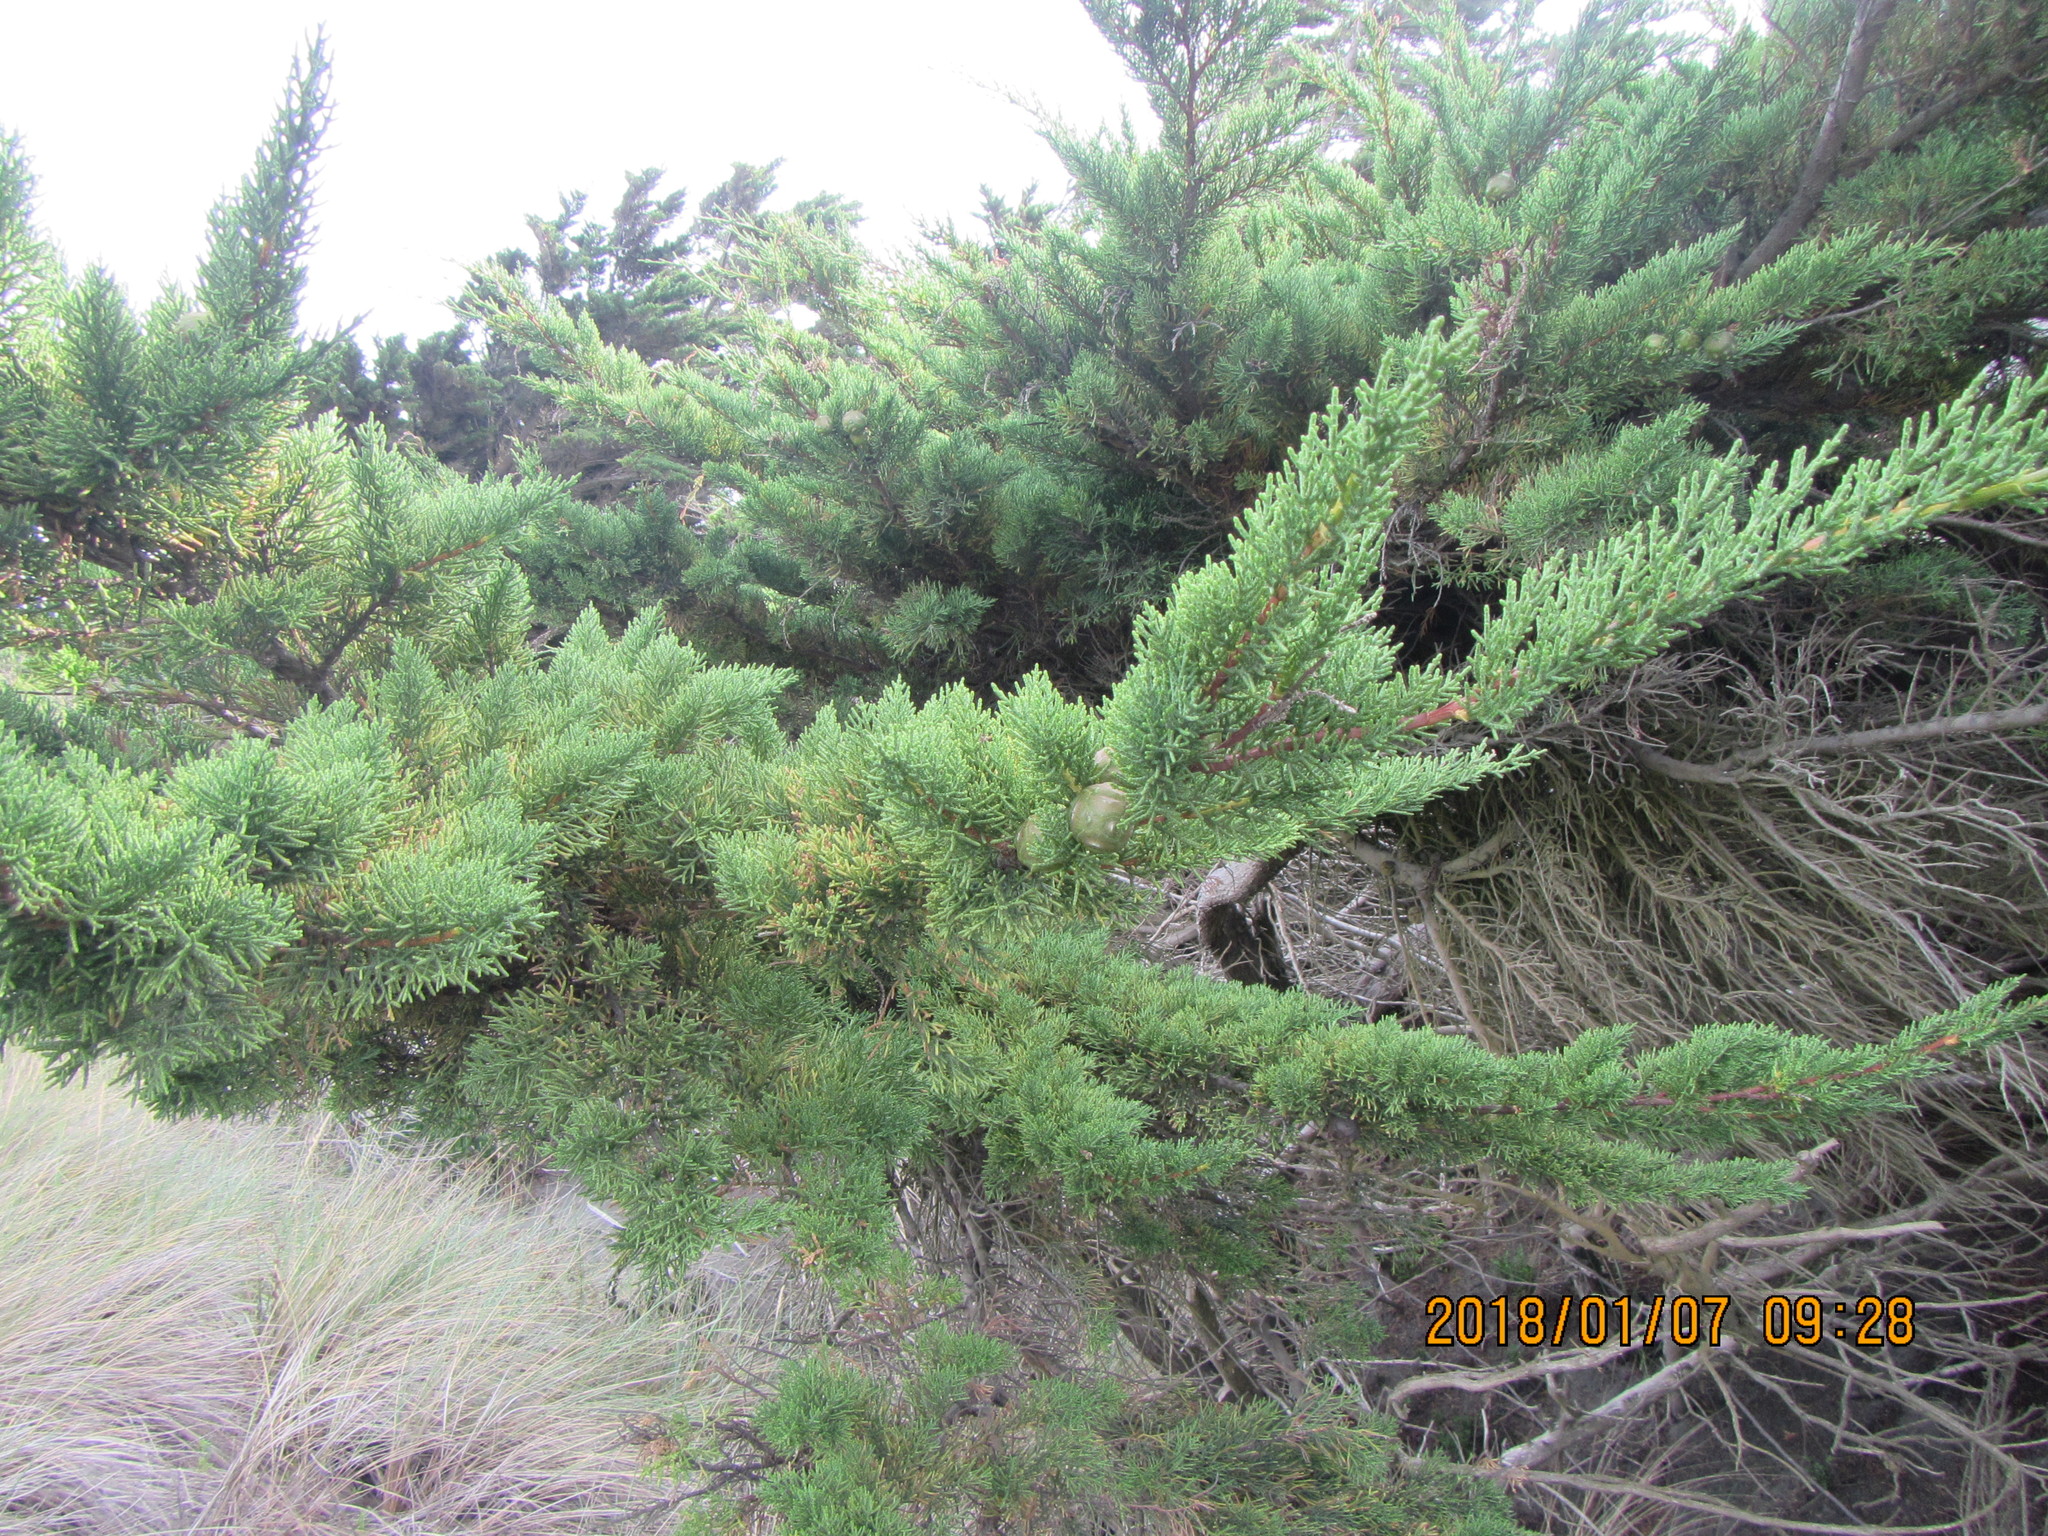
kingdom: Plantae
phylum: Tracheophyta
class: Pinopsida
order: Pinales
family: Cupressaceae
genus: Cupressus
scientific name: Cupressus macrocarpa
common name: Monterey cypress
